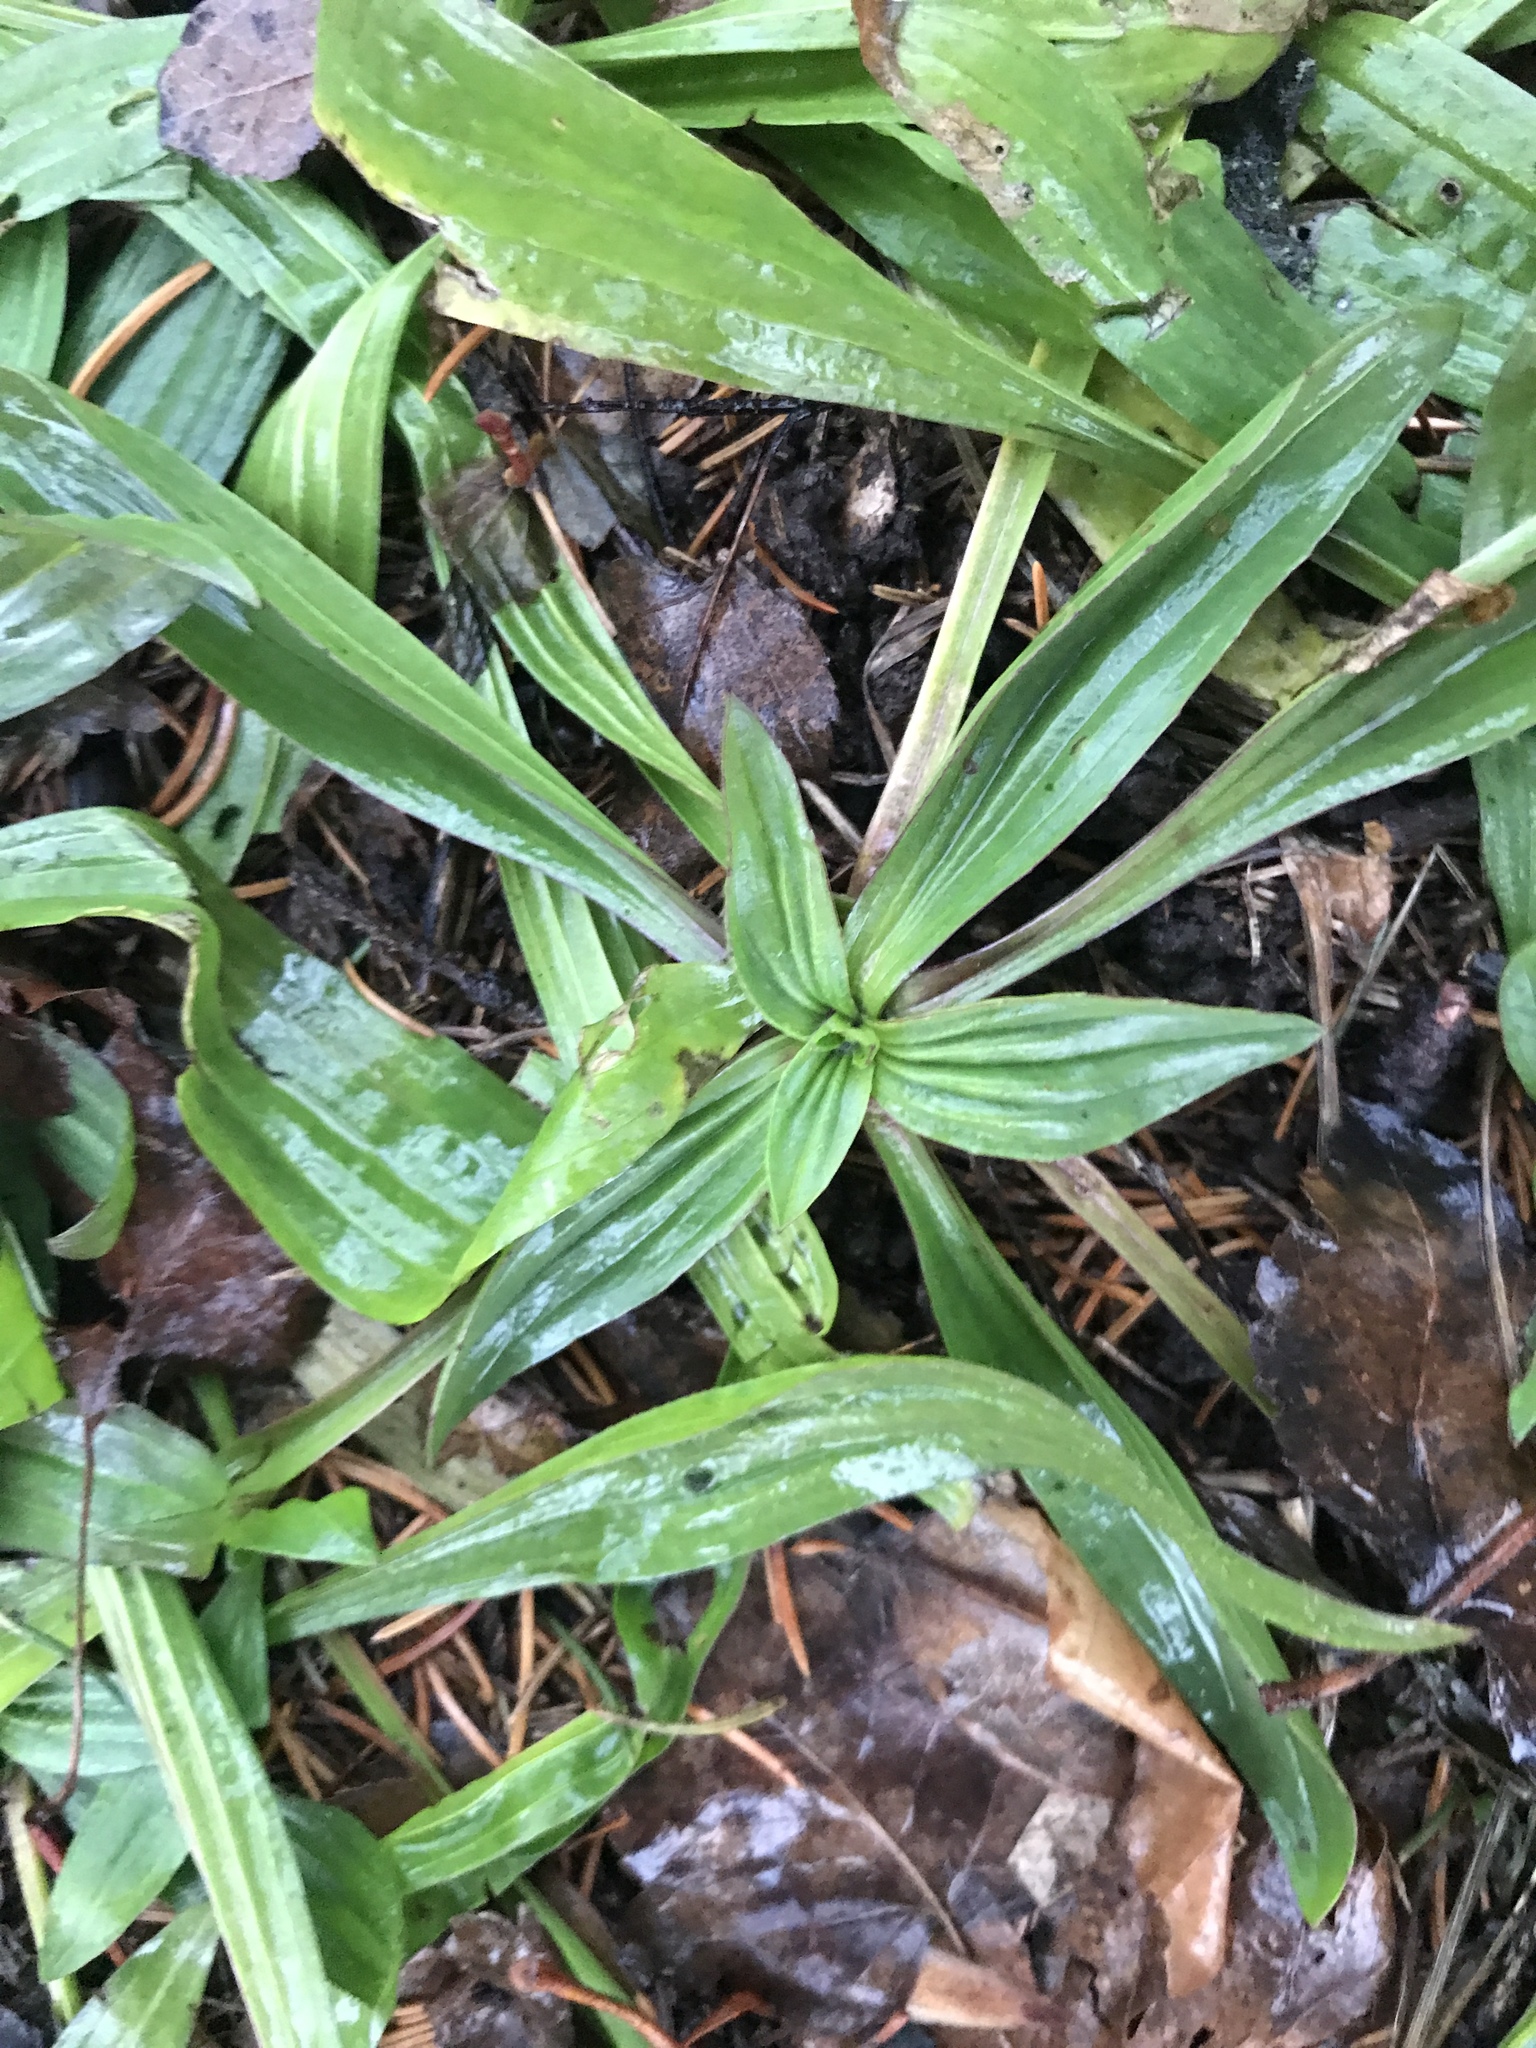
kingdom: Plantae
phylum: Tracheophyta
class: Magnoliopsida
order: Lamiales
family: Plantaginaceae
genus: Plantago
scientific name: Plantago lanceolata
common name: Ribwort plantain
